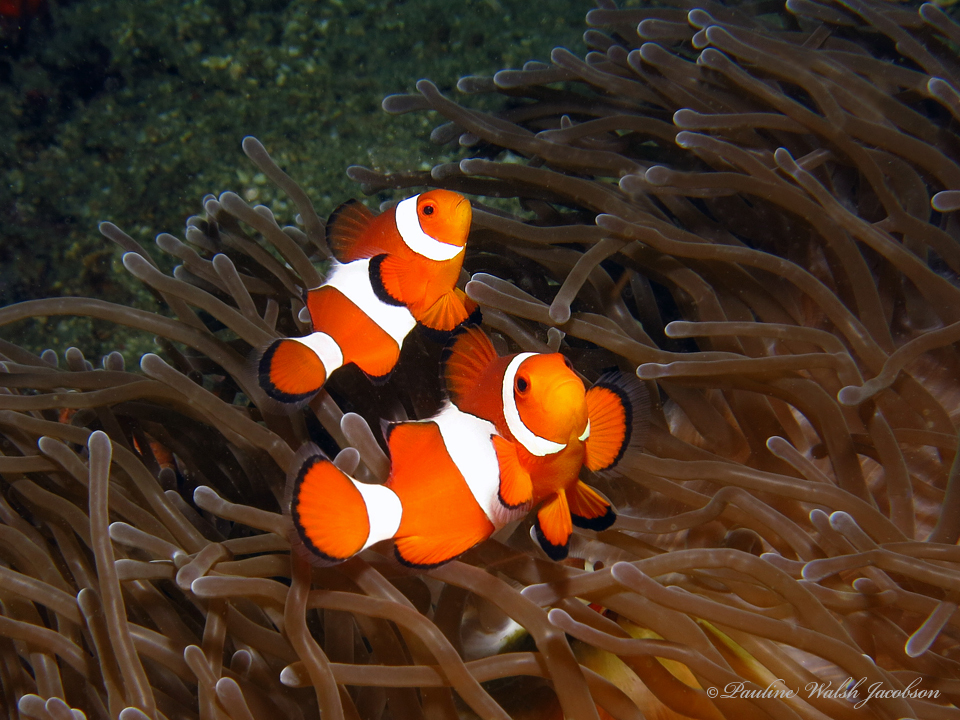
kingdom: Animalia
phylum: Chordata
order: Perciformes
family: Pomacentridae
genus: Amphiprion
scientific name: Amphiprion ocellaris
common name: Clown anemonefish
